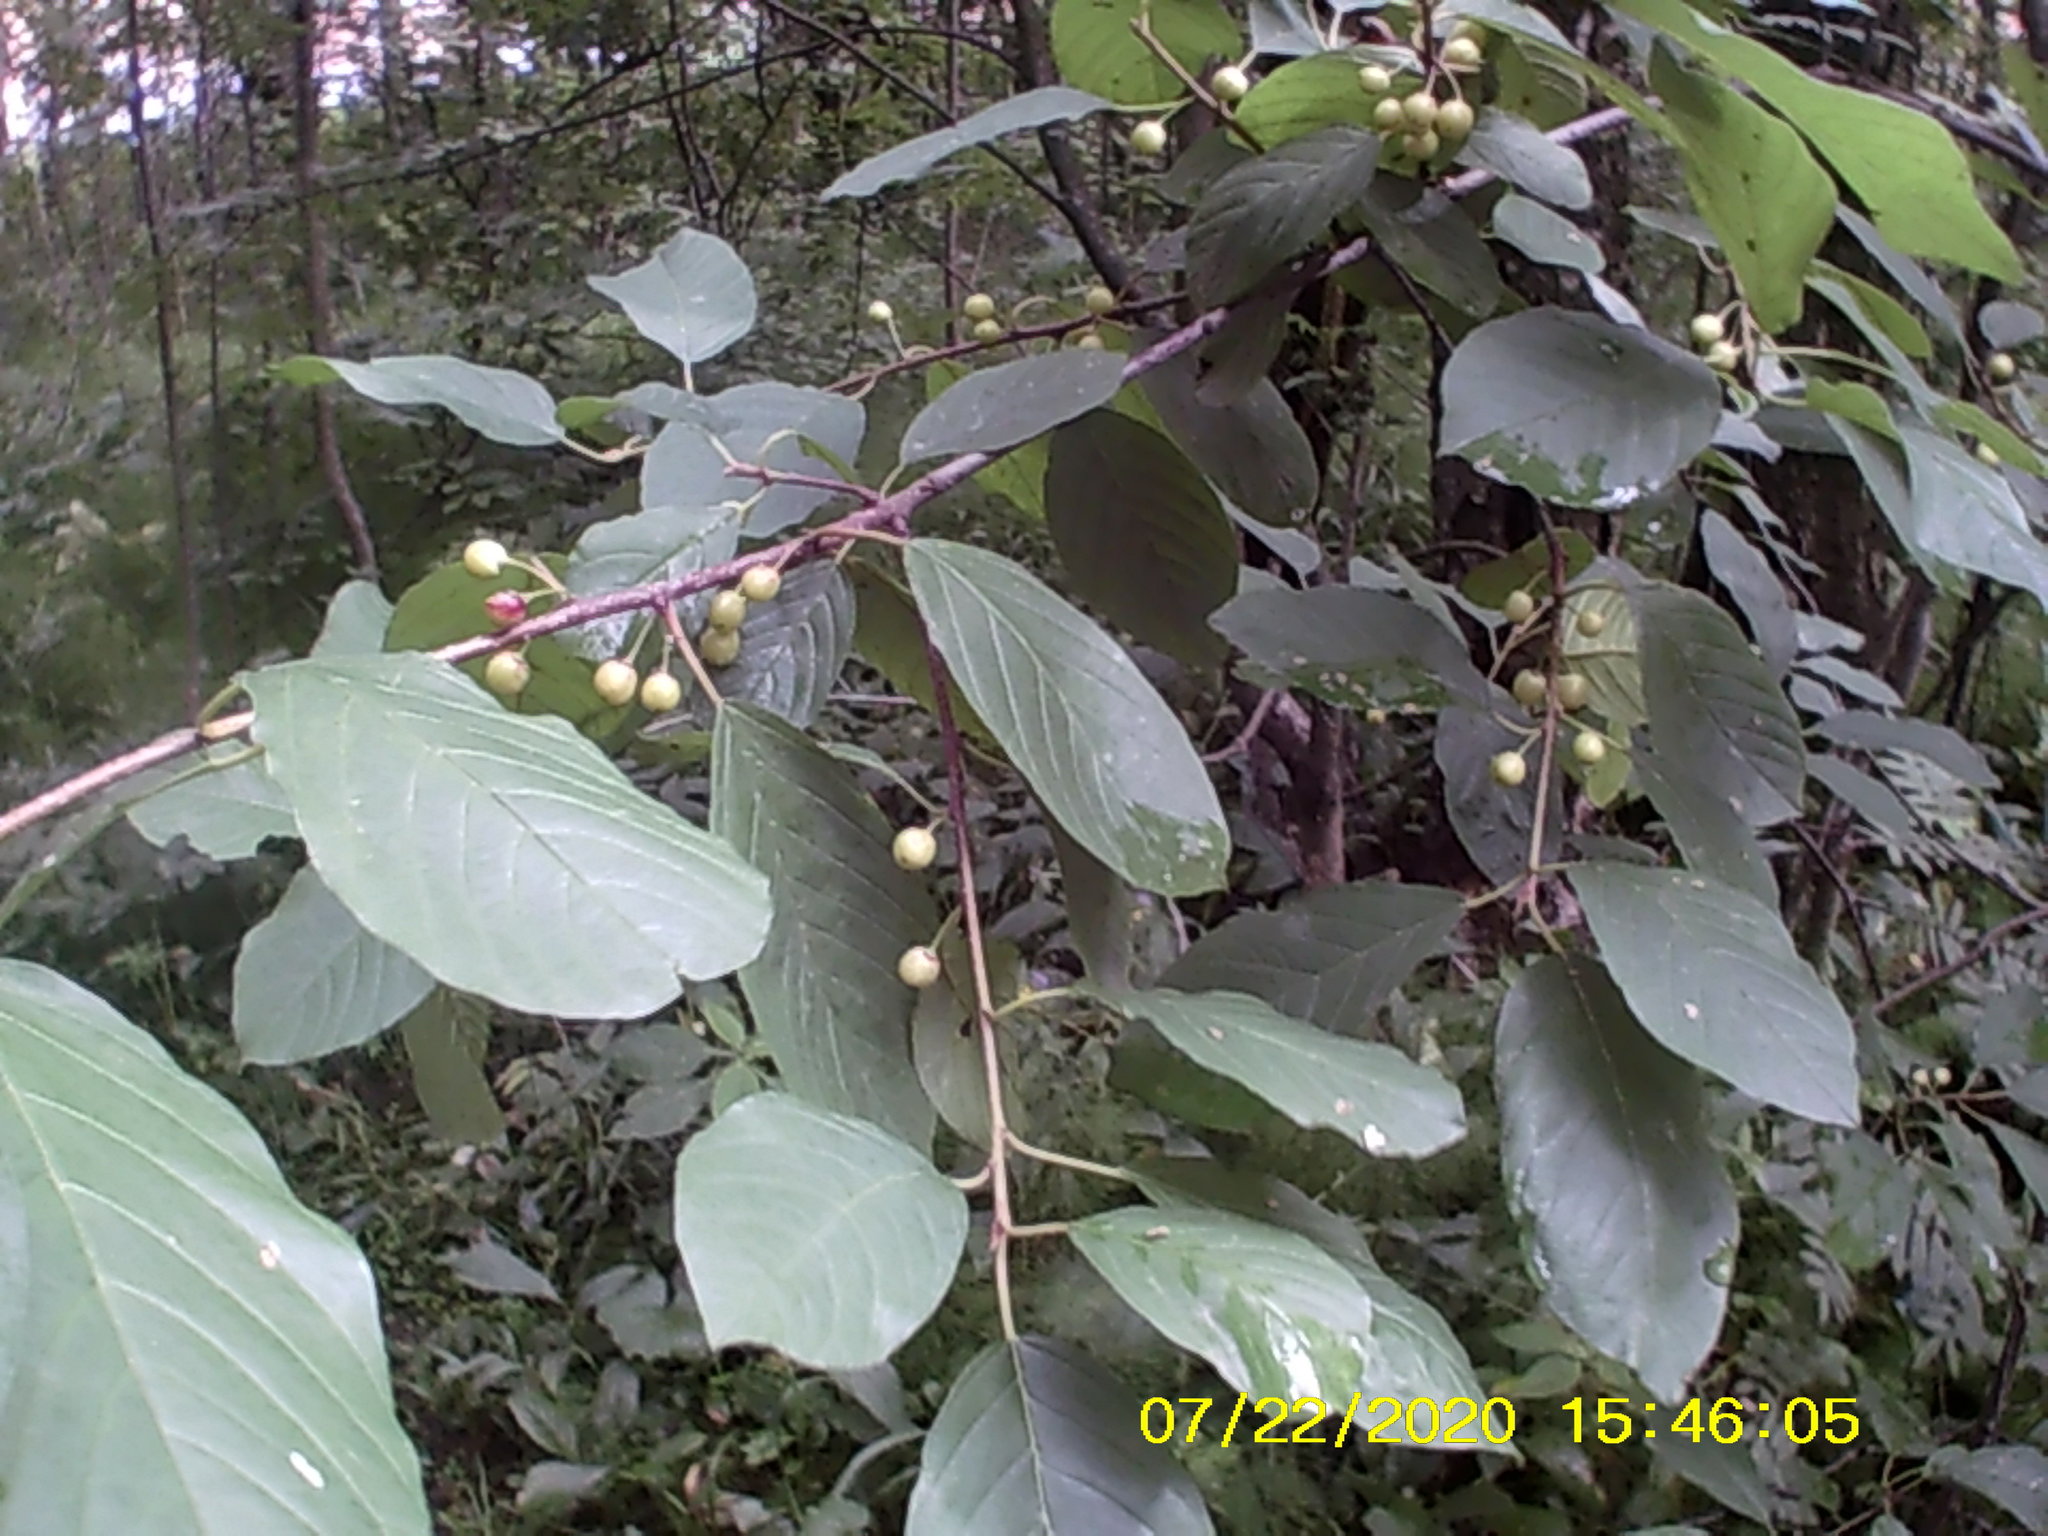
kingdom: Plantae
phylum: Tracheophyta
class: Magnoliopsida
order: Rosales
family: Rhamnaceae
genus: Frangula
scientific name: Frangula alnus
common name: Alder buckthorn
